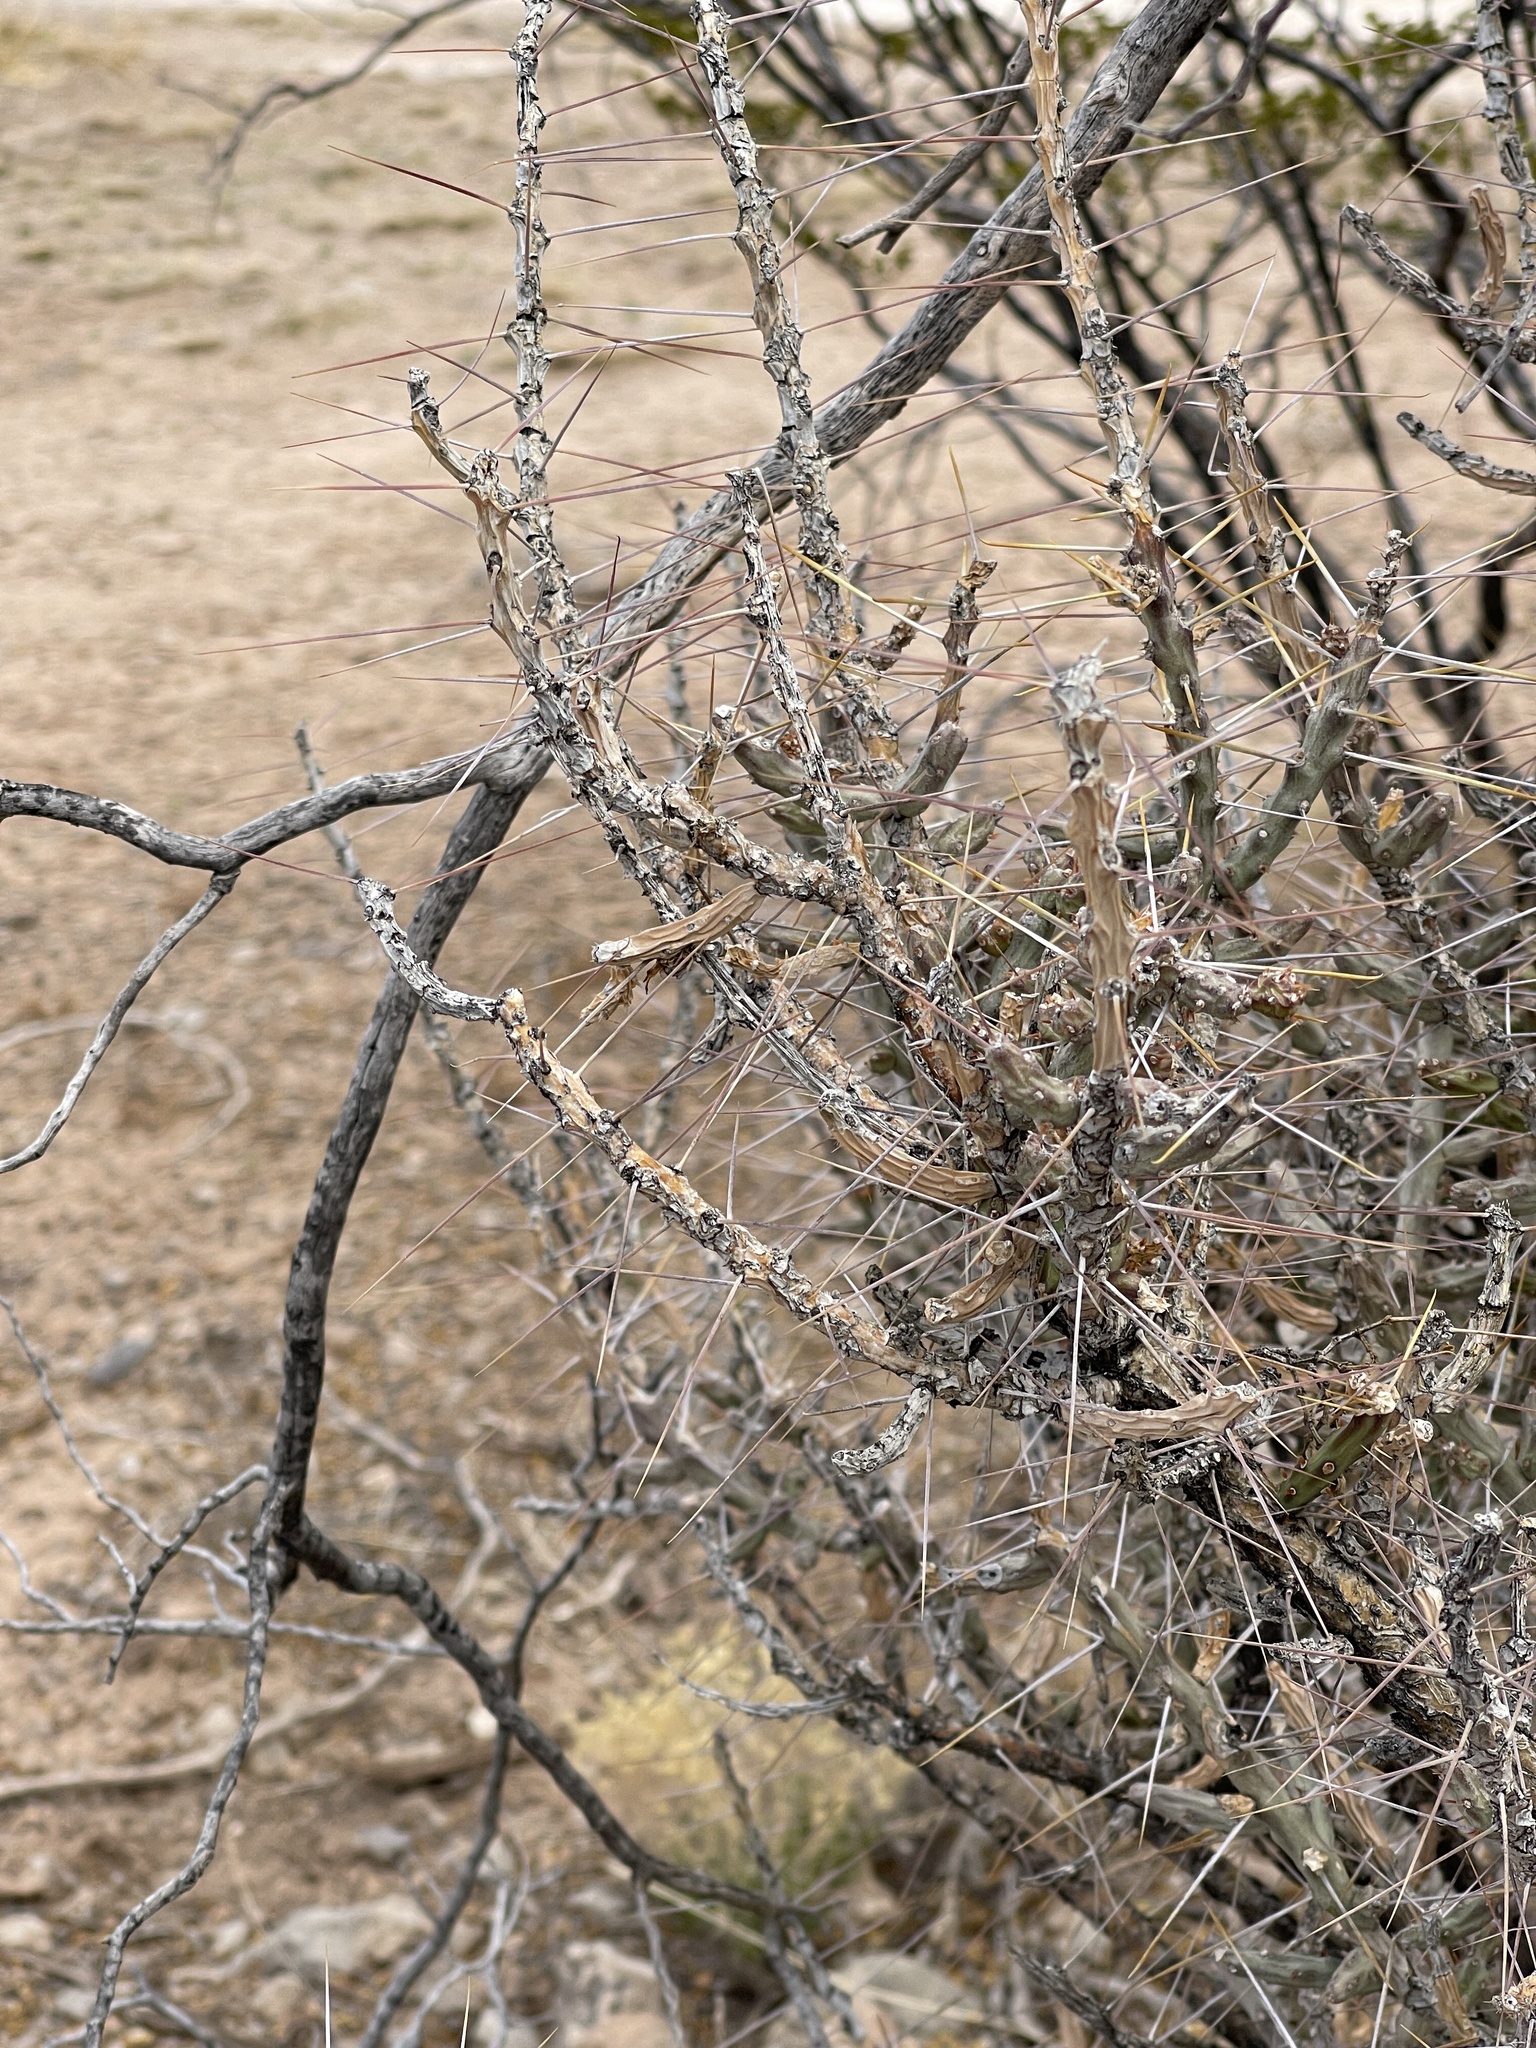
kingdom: Plantae
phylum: Tracheophyta
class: Magnoliopsida
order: Caryophyllales
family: Cactaceae
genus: Cylindropuntia
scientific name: Cylindropuntia leptocaulis
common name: Christmas cactus
